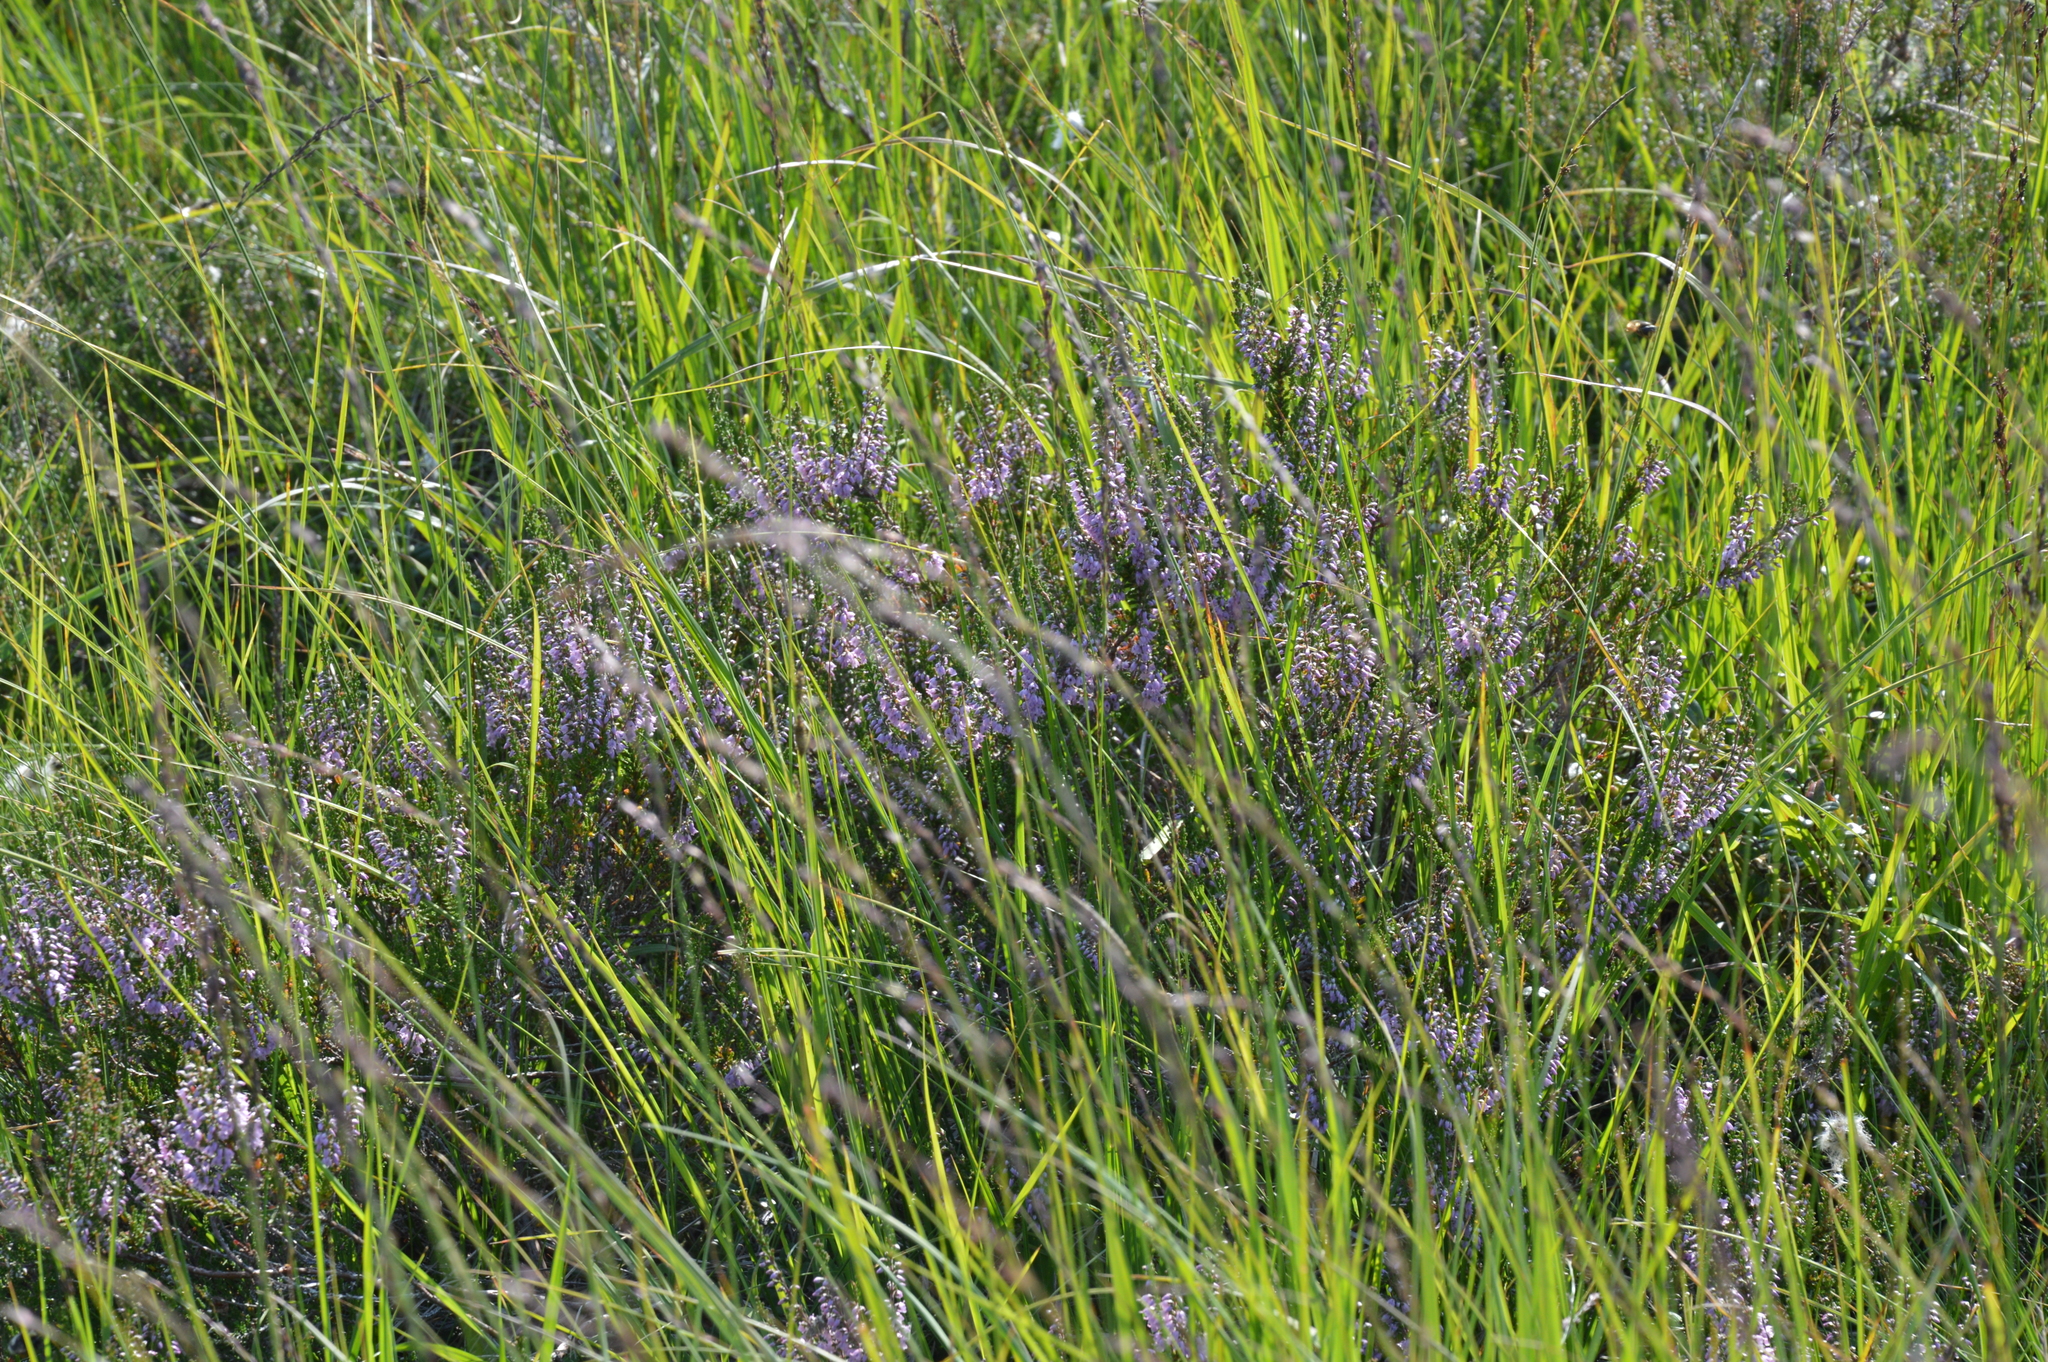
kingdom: Plantae
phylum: Tracheophyta
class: Magnoliopsida
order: Ericales
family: Ericaceae
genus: Calluna
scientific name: Calluna vulgaris
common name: Heather
